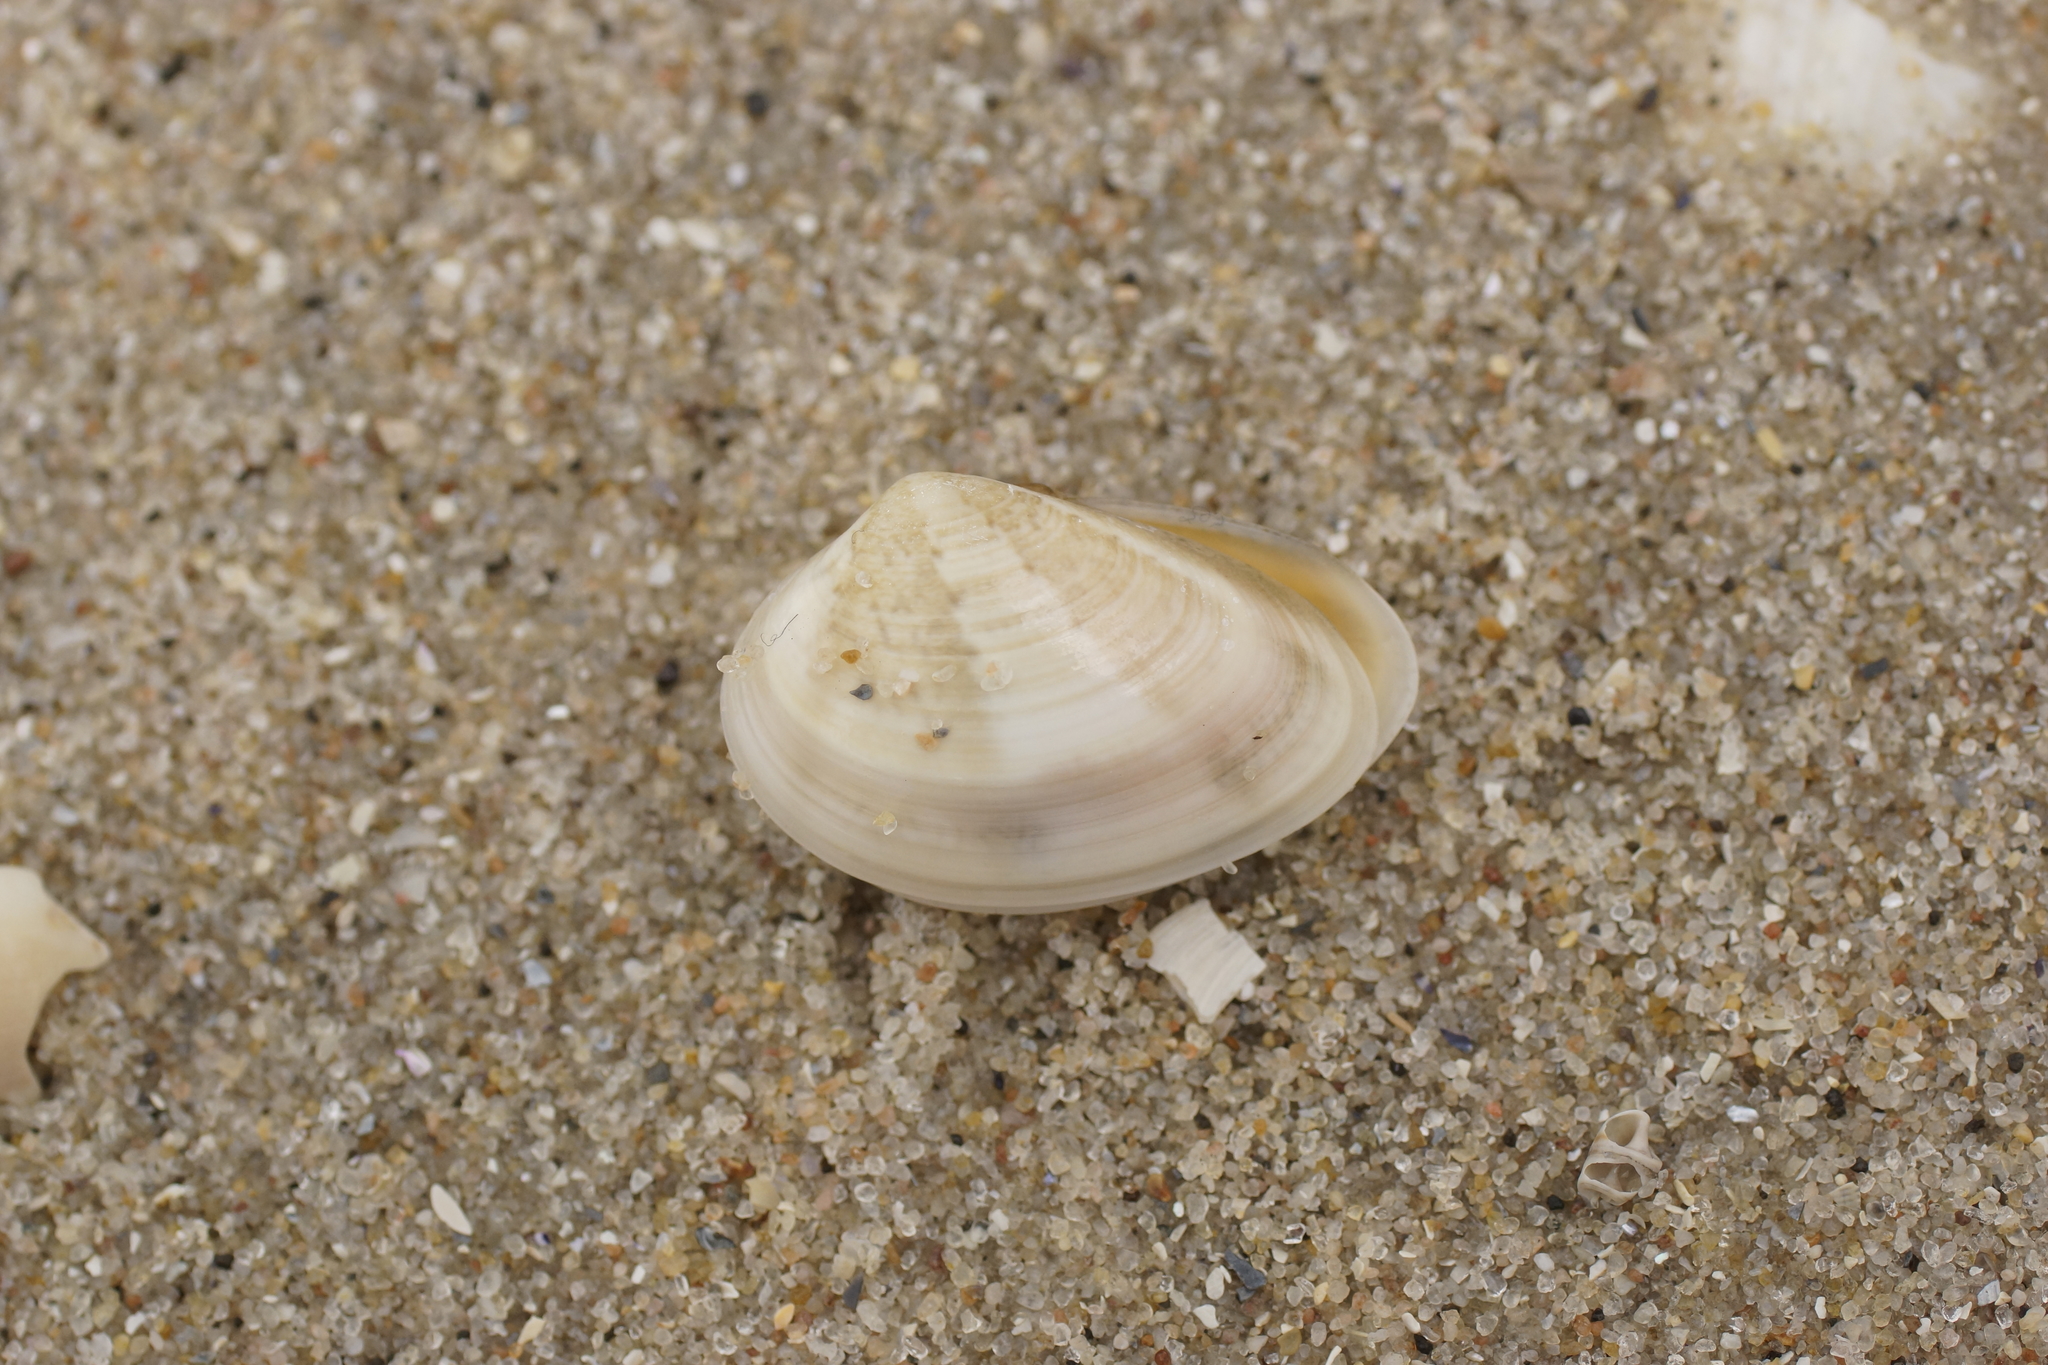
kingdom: Animalia
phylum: Mollusca
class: Bivalvia
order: Venerida
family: Veneridae
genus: Eumarcia
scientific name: Eumarcia fumigata
